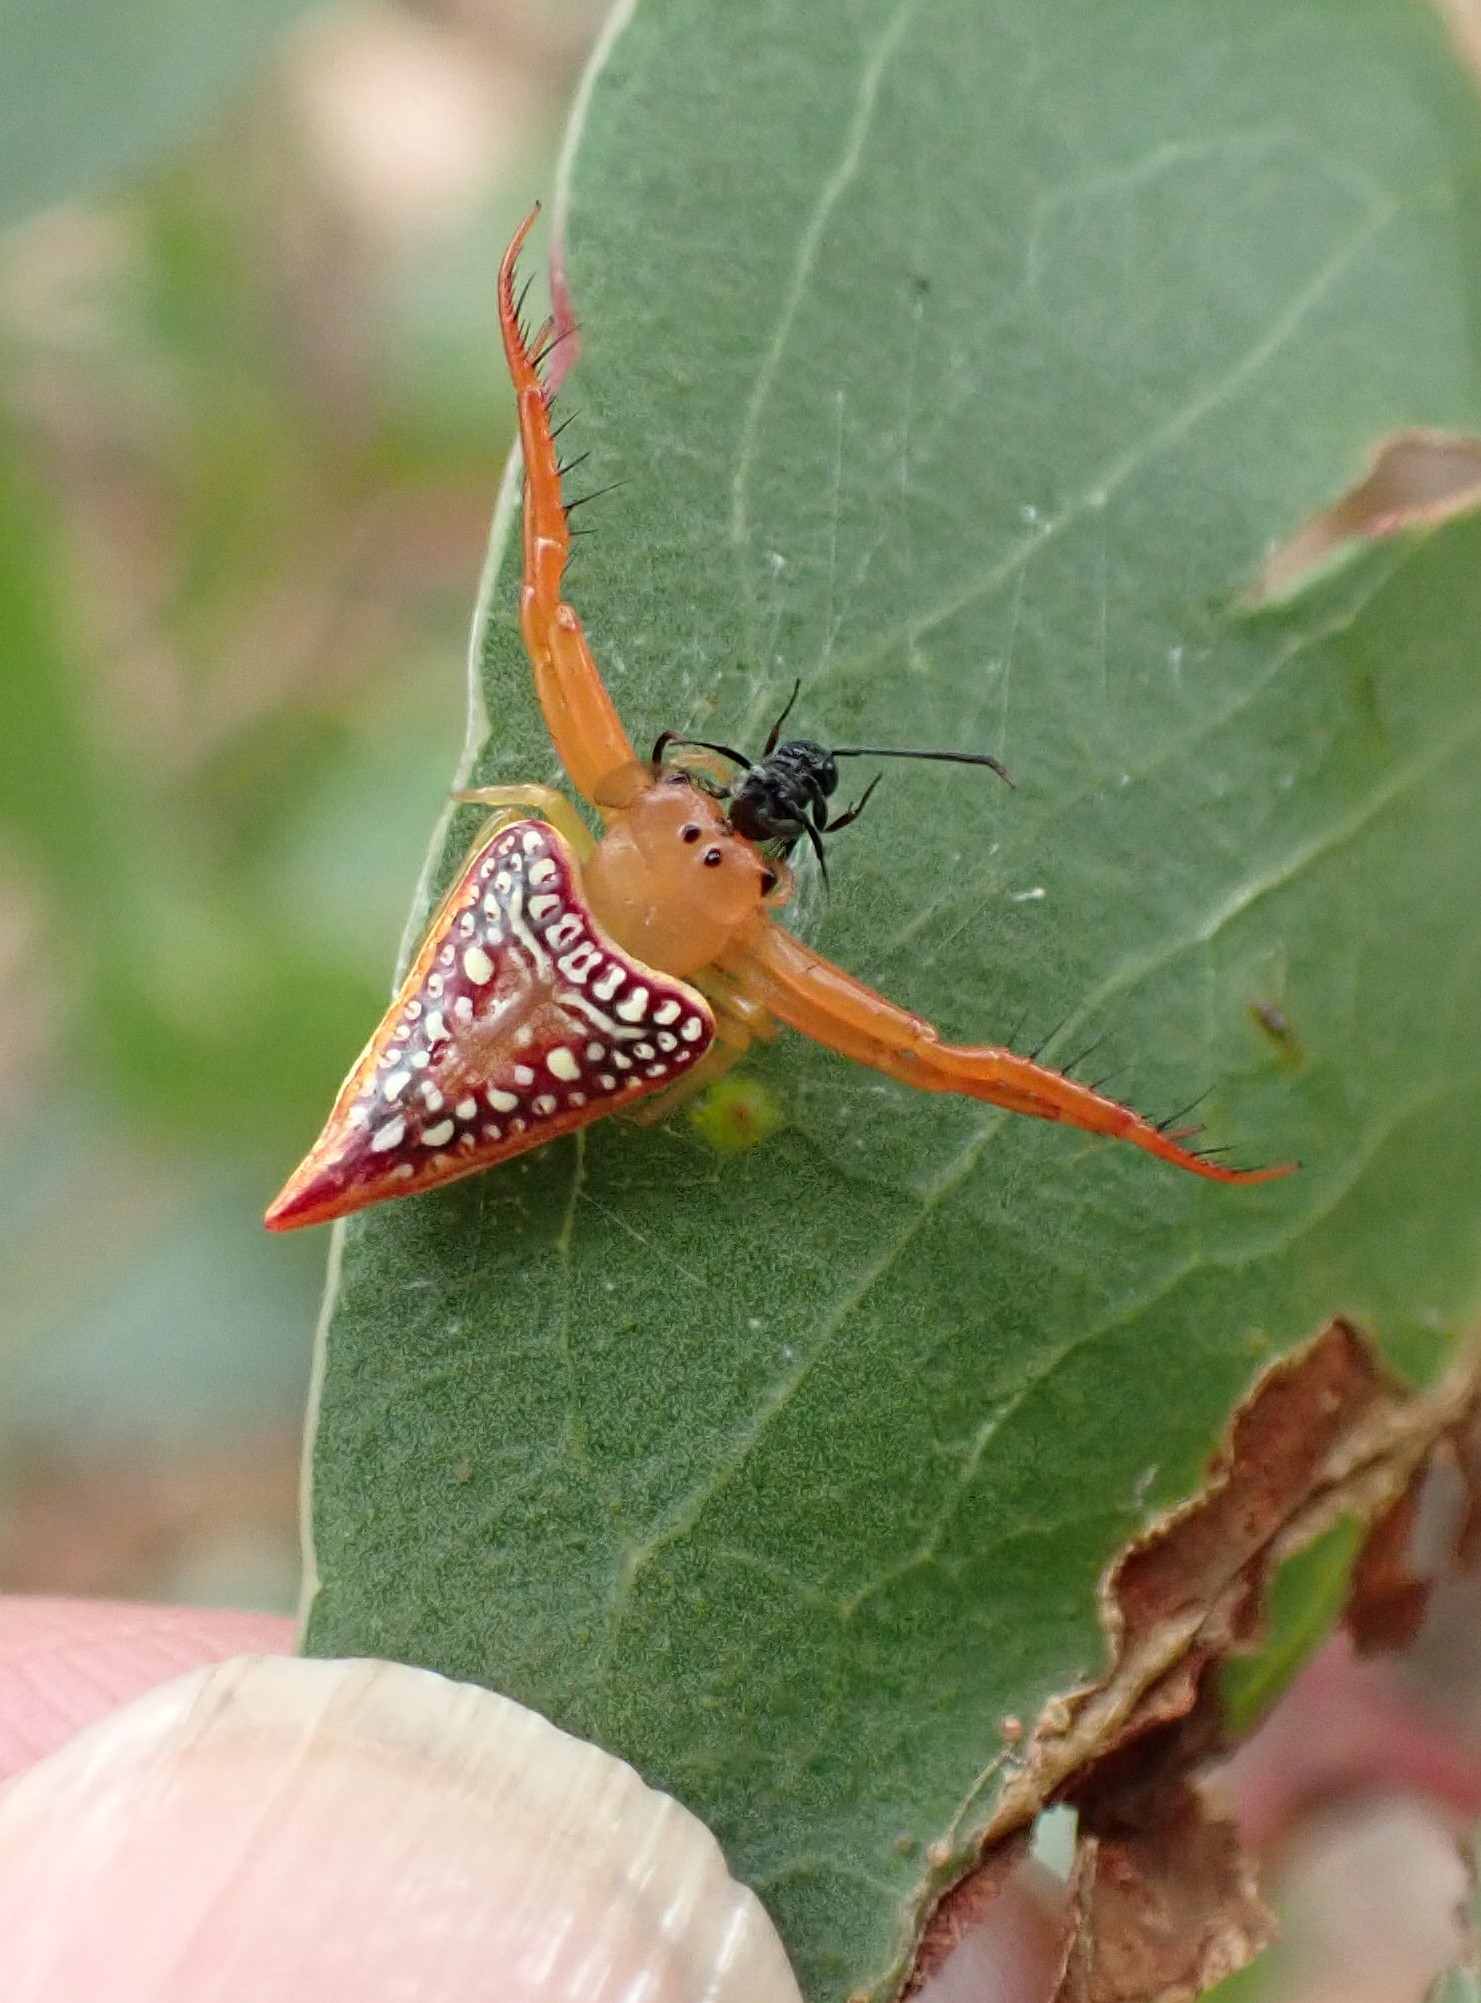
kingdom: Animalia
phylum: Arthropoda
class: Arachnida
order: Araneae
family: Arkyidae
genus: Arkys
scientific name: Arkys walckenaeri
